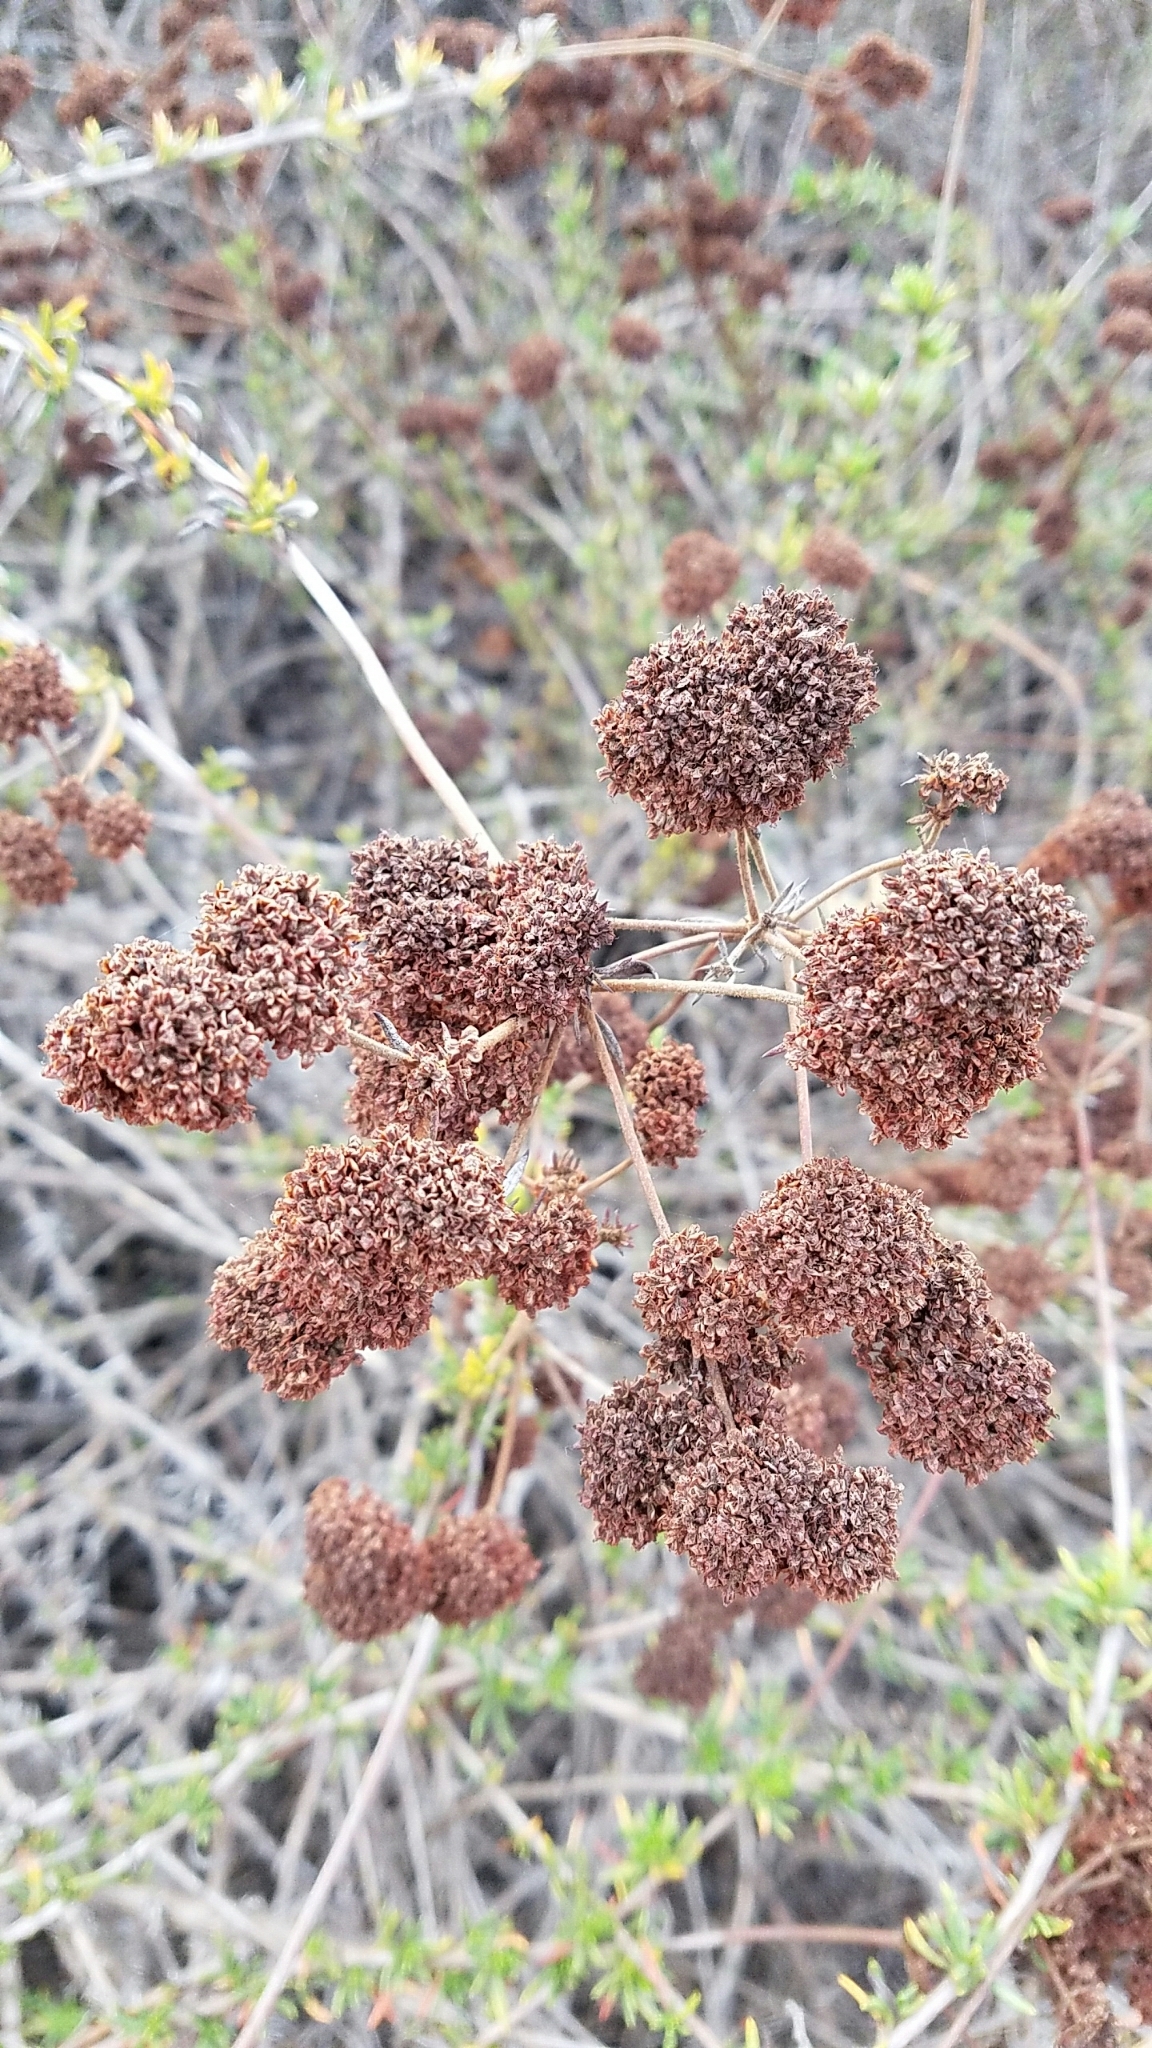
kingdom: Plantae
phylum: Tracheophyta
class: Magnoliopsida
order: Caryophyllales
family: Polygonaceae
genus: Eriogonum
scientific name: Eriogonum fasciculatum
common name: California wild buckwheat
